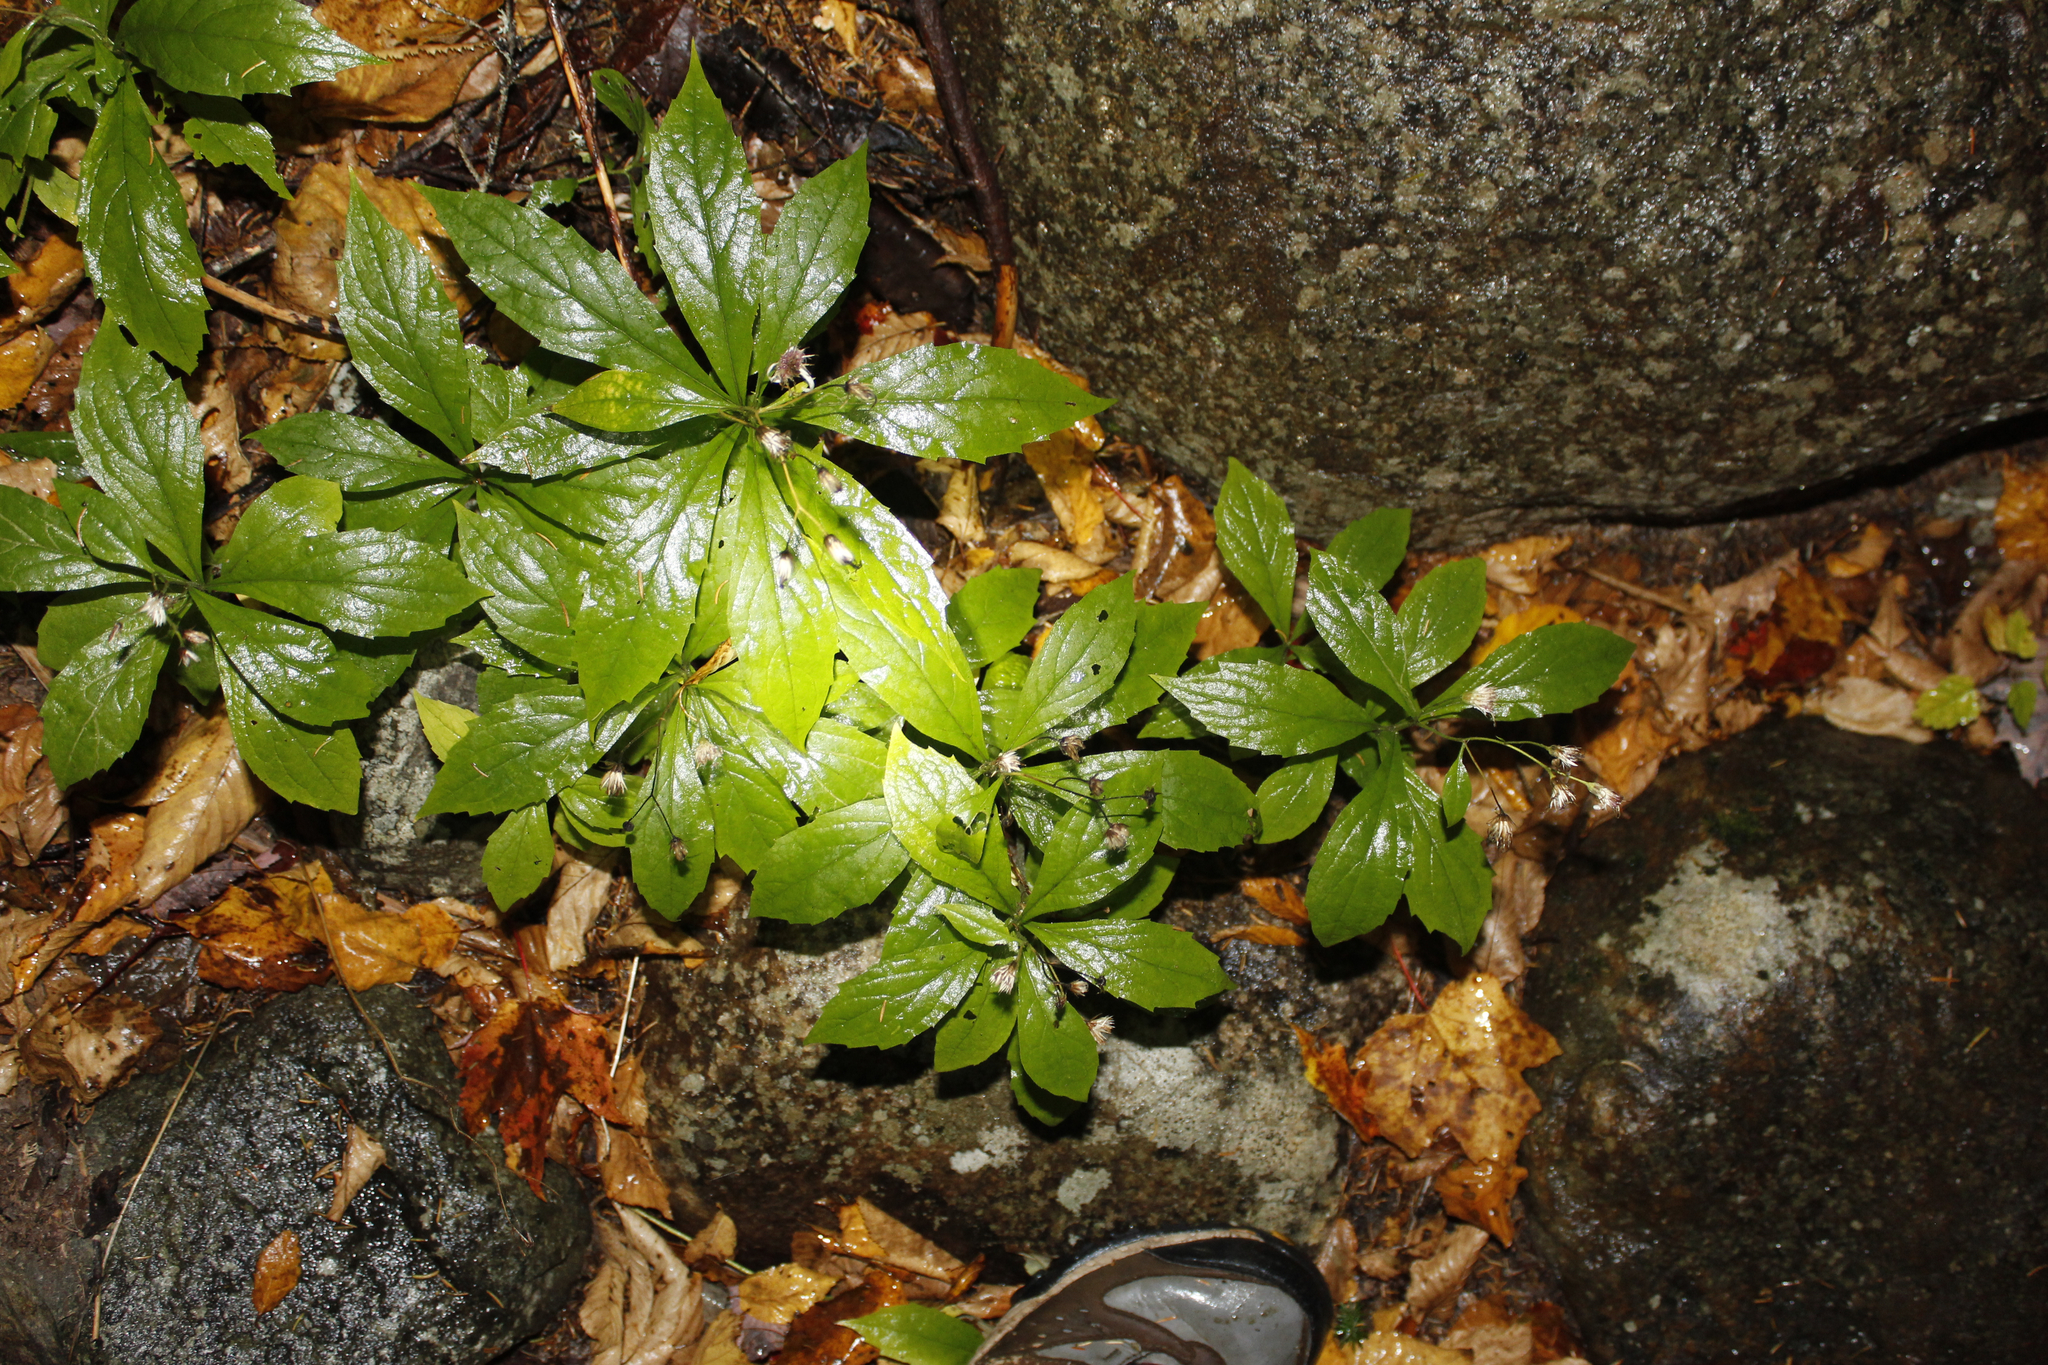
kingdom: Plantae
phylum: Tracheophyta
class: Magnoliopsida
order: Asterales
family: Asteraceae
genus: Oclemena
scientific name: Oclemena acuminata
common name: Mountain aster
